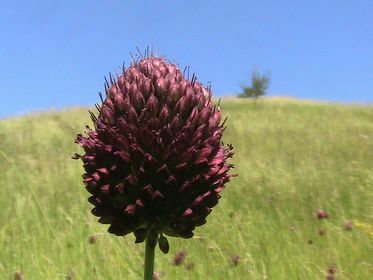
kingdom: Plantae
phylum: Tracheophyta
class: Liliopsida
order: Asparagales
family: Amaryllidaceae
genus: Allium
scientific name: Allium sphaerocephalon
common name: Round-headed leek
